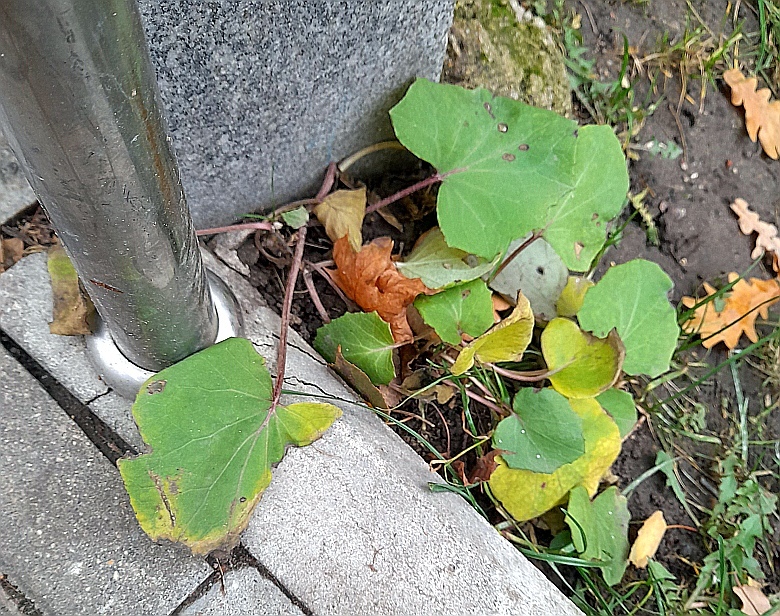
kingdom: Plantae
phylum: Tracheophyta
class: Magnoliopsida
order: Asterales
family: Asteraceae
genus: Tussilago
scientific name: Tussilago farfara
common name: Coltsfoot
